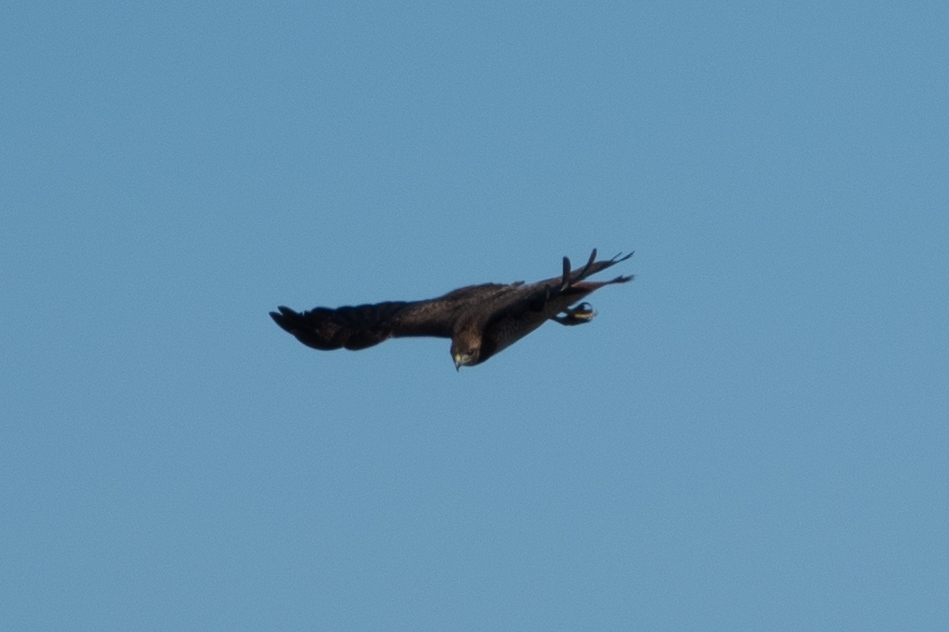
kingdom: Animalia
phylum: Chordata
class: Aves
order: Accipitriformes
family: Accipitridae
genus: Buteo
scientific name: Buteo jamaicensis
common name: Red-tailed hawk
